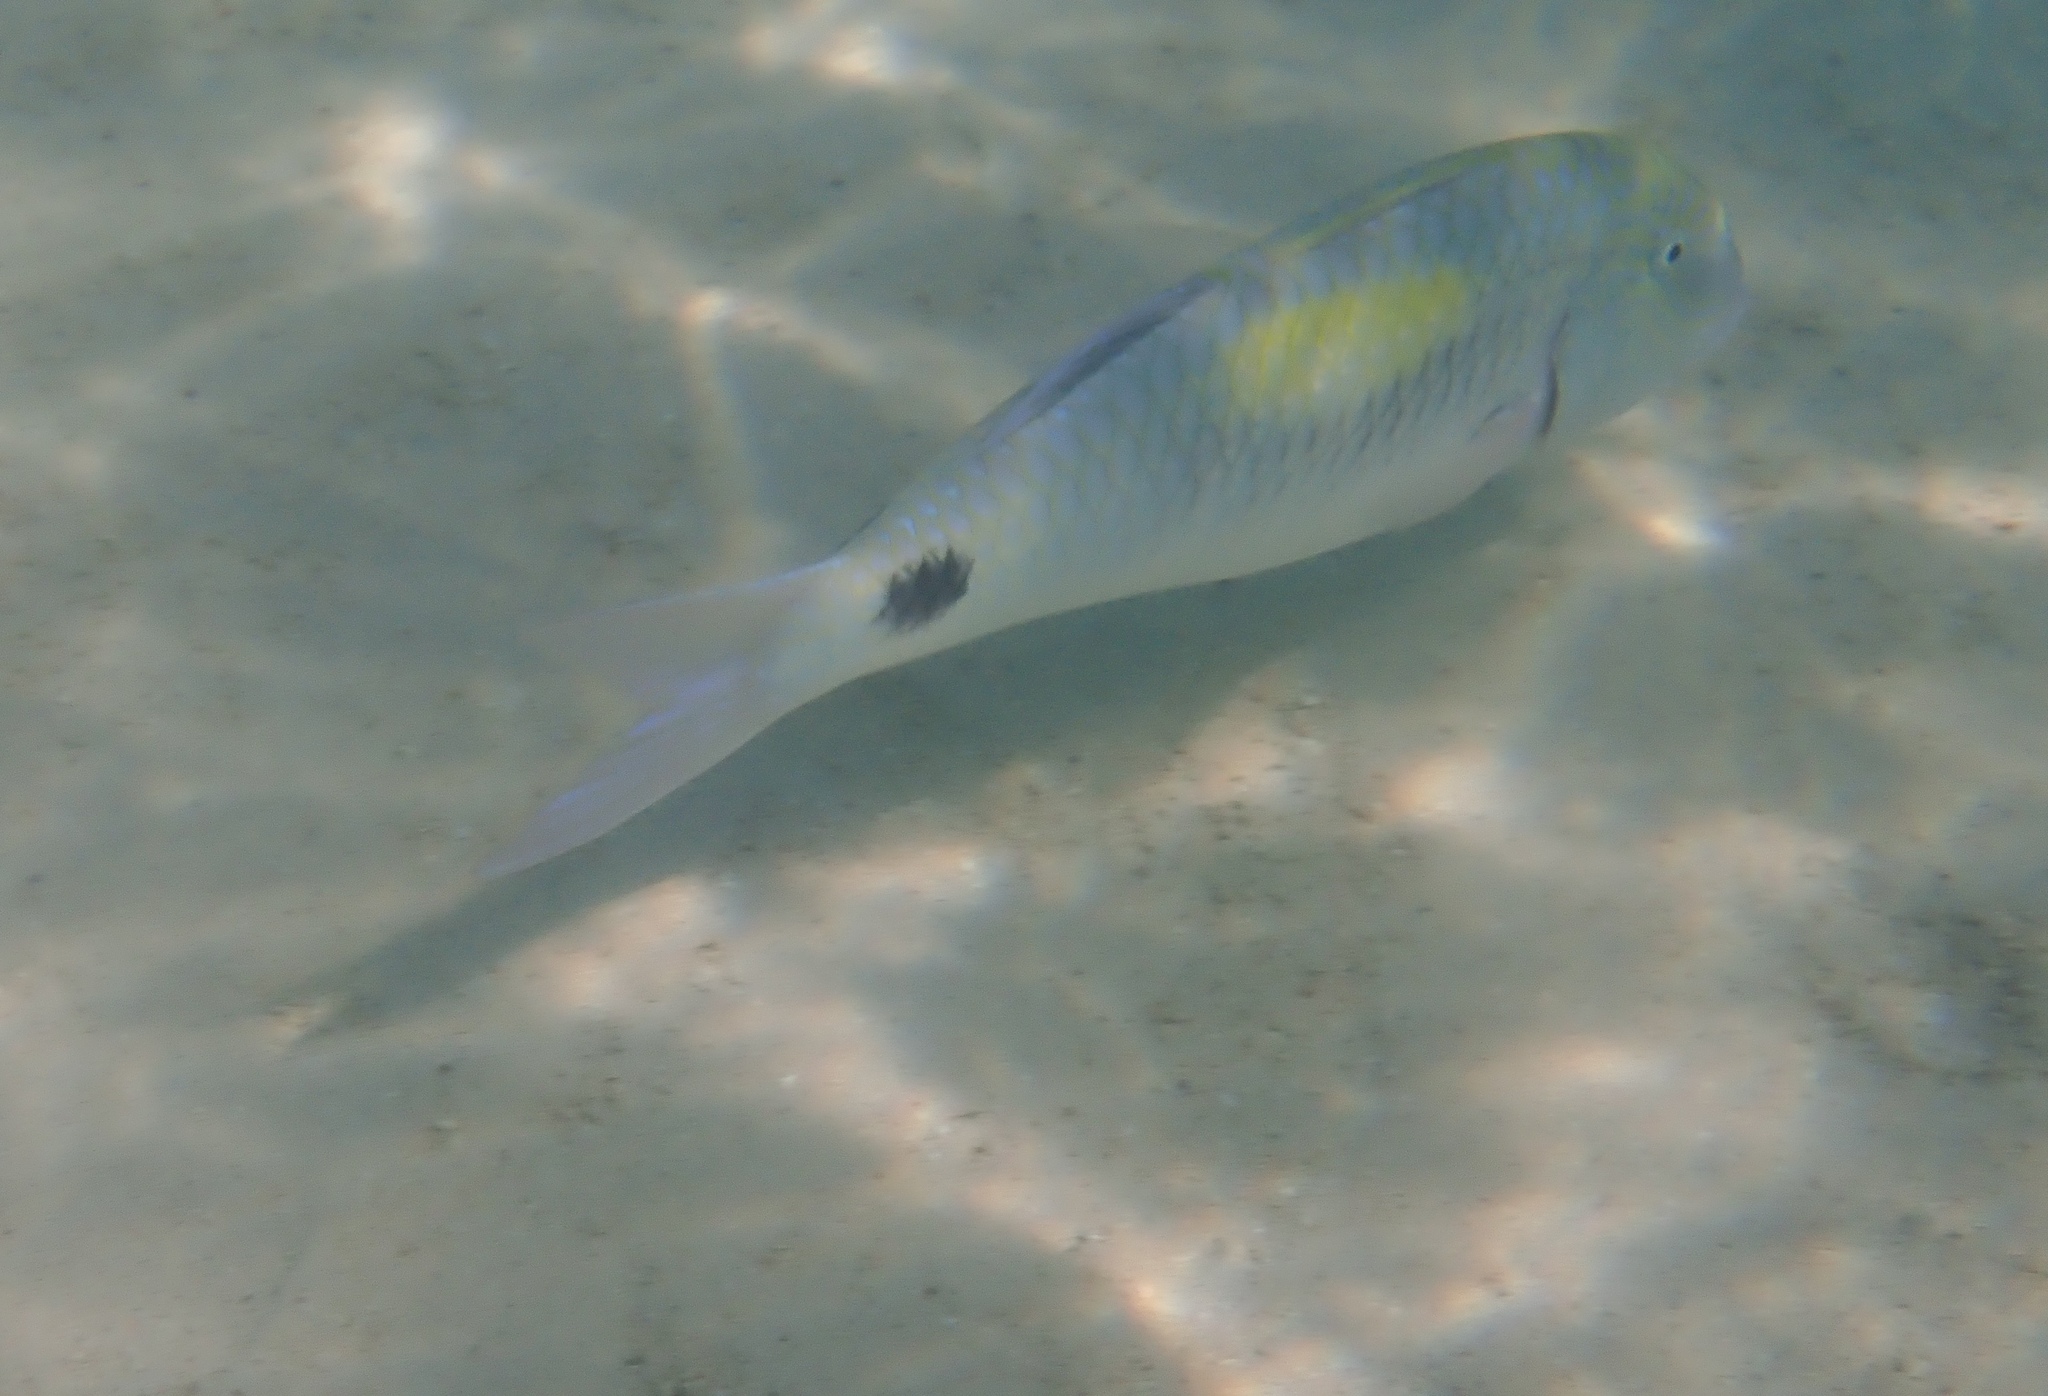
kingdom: Animalia
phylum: Chordata
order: Perciformes
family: Mullidae
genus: Parupeneus
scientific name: Parupeneus indicus
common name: Indian goatfish
